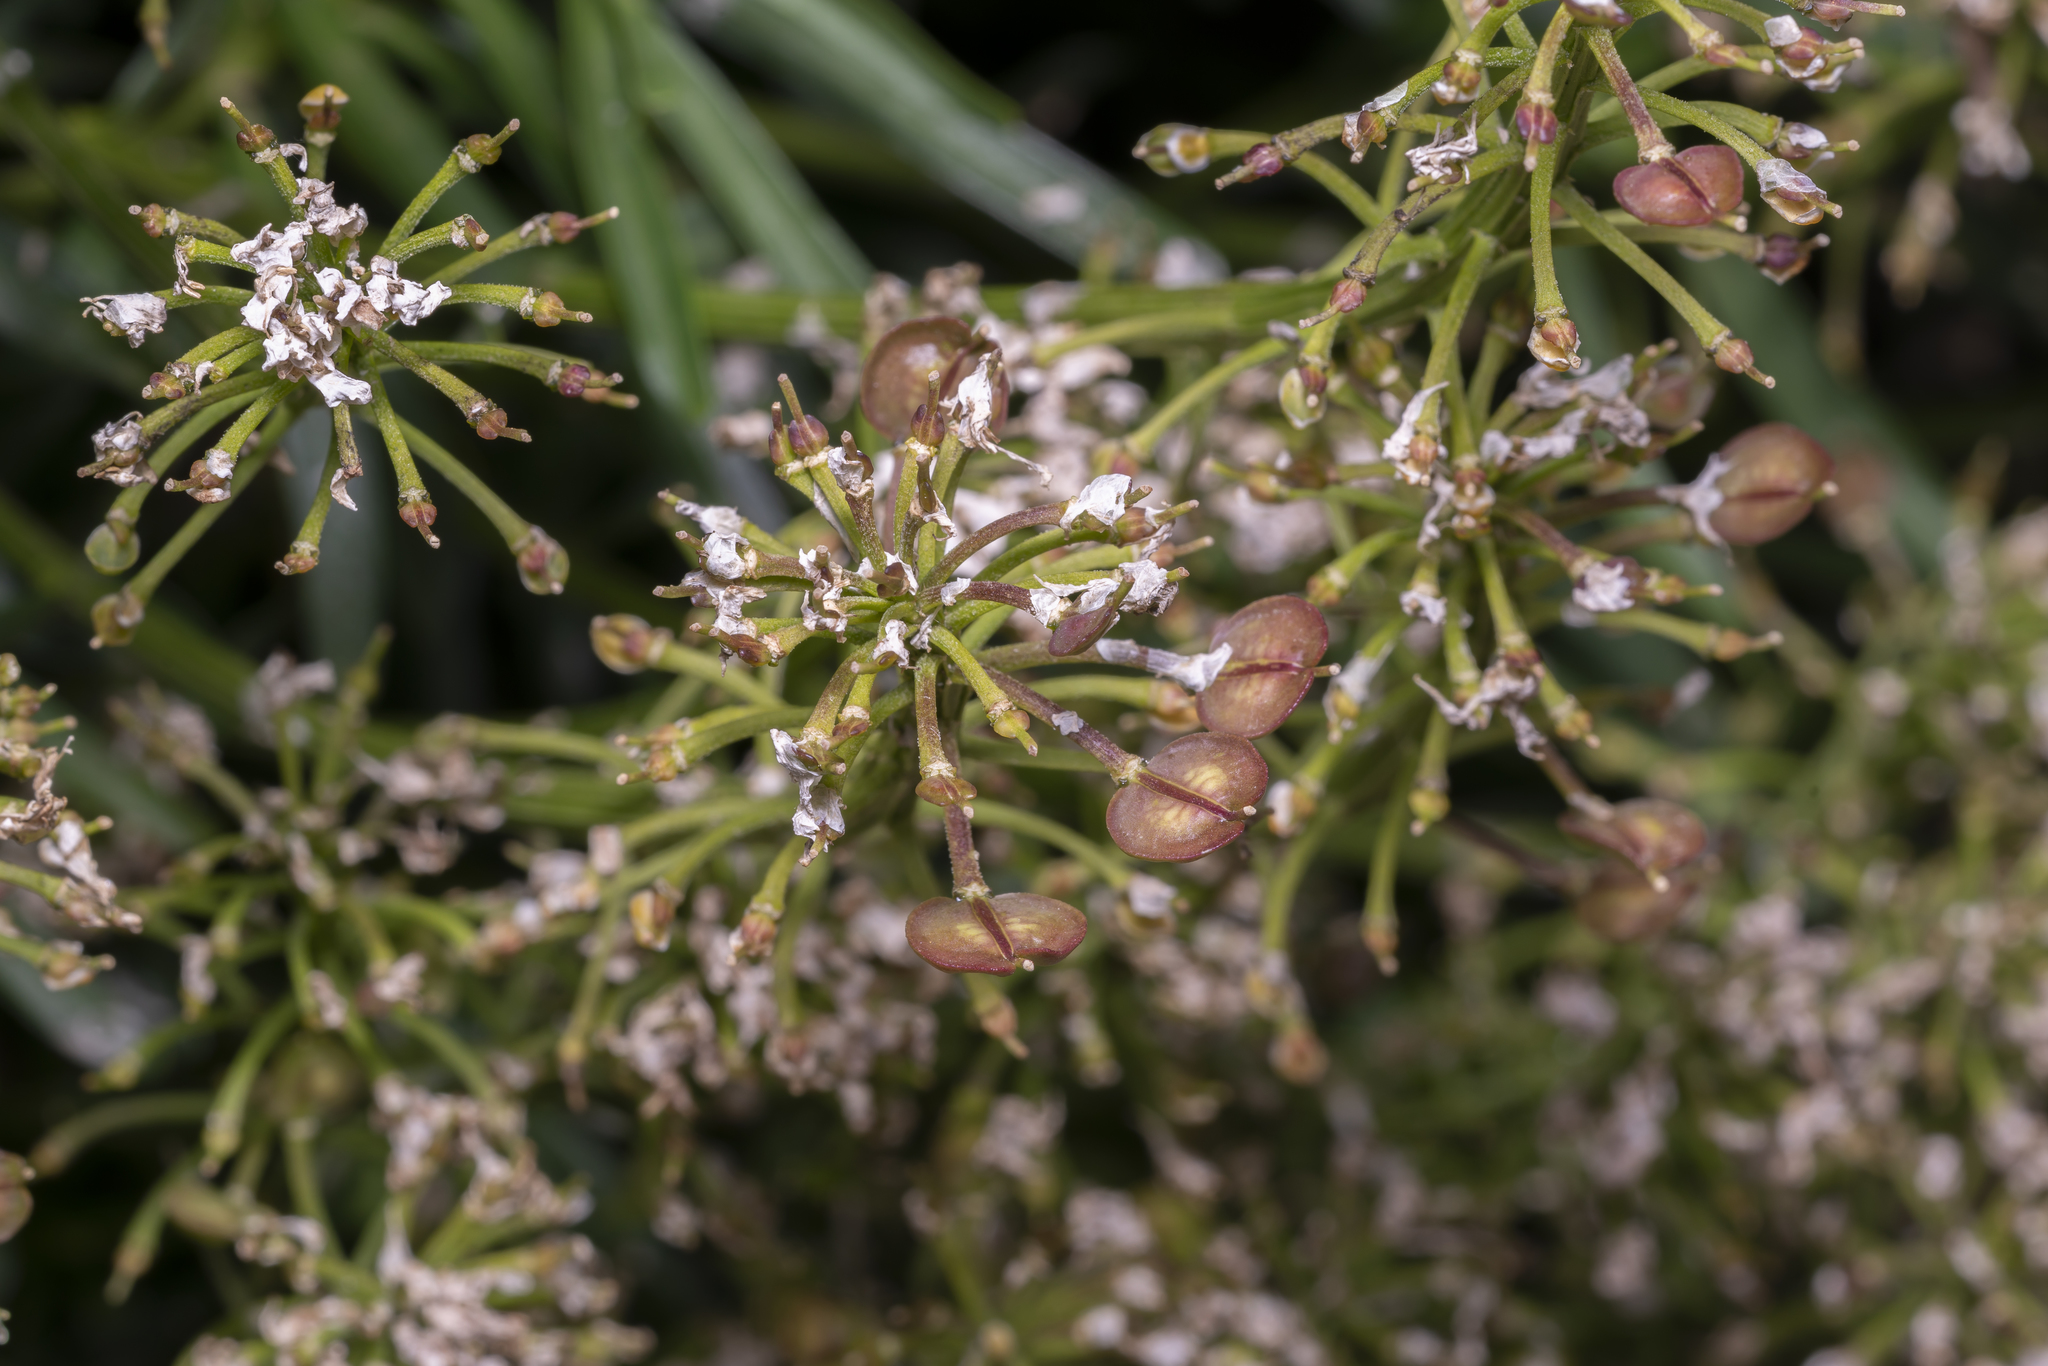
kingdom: Plantae
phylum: Tracheophyta
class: Magnoliopsida
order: Brassicales
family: Brassicaceae
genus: Iberis
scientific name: Iberis sempervirens
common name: Evergreen candytuft
